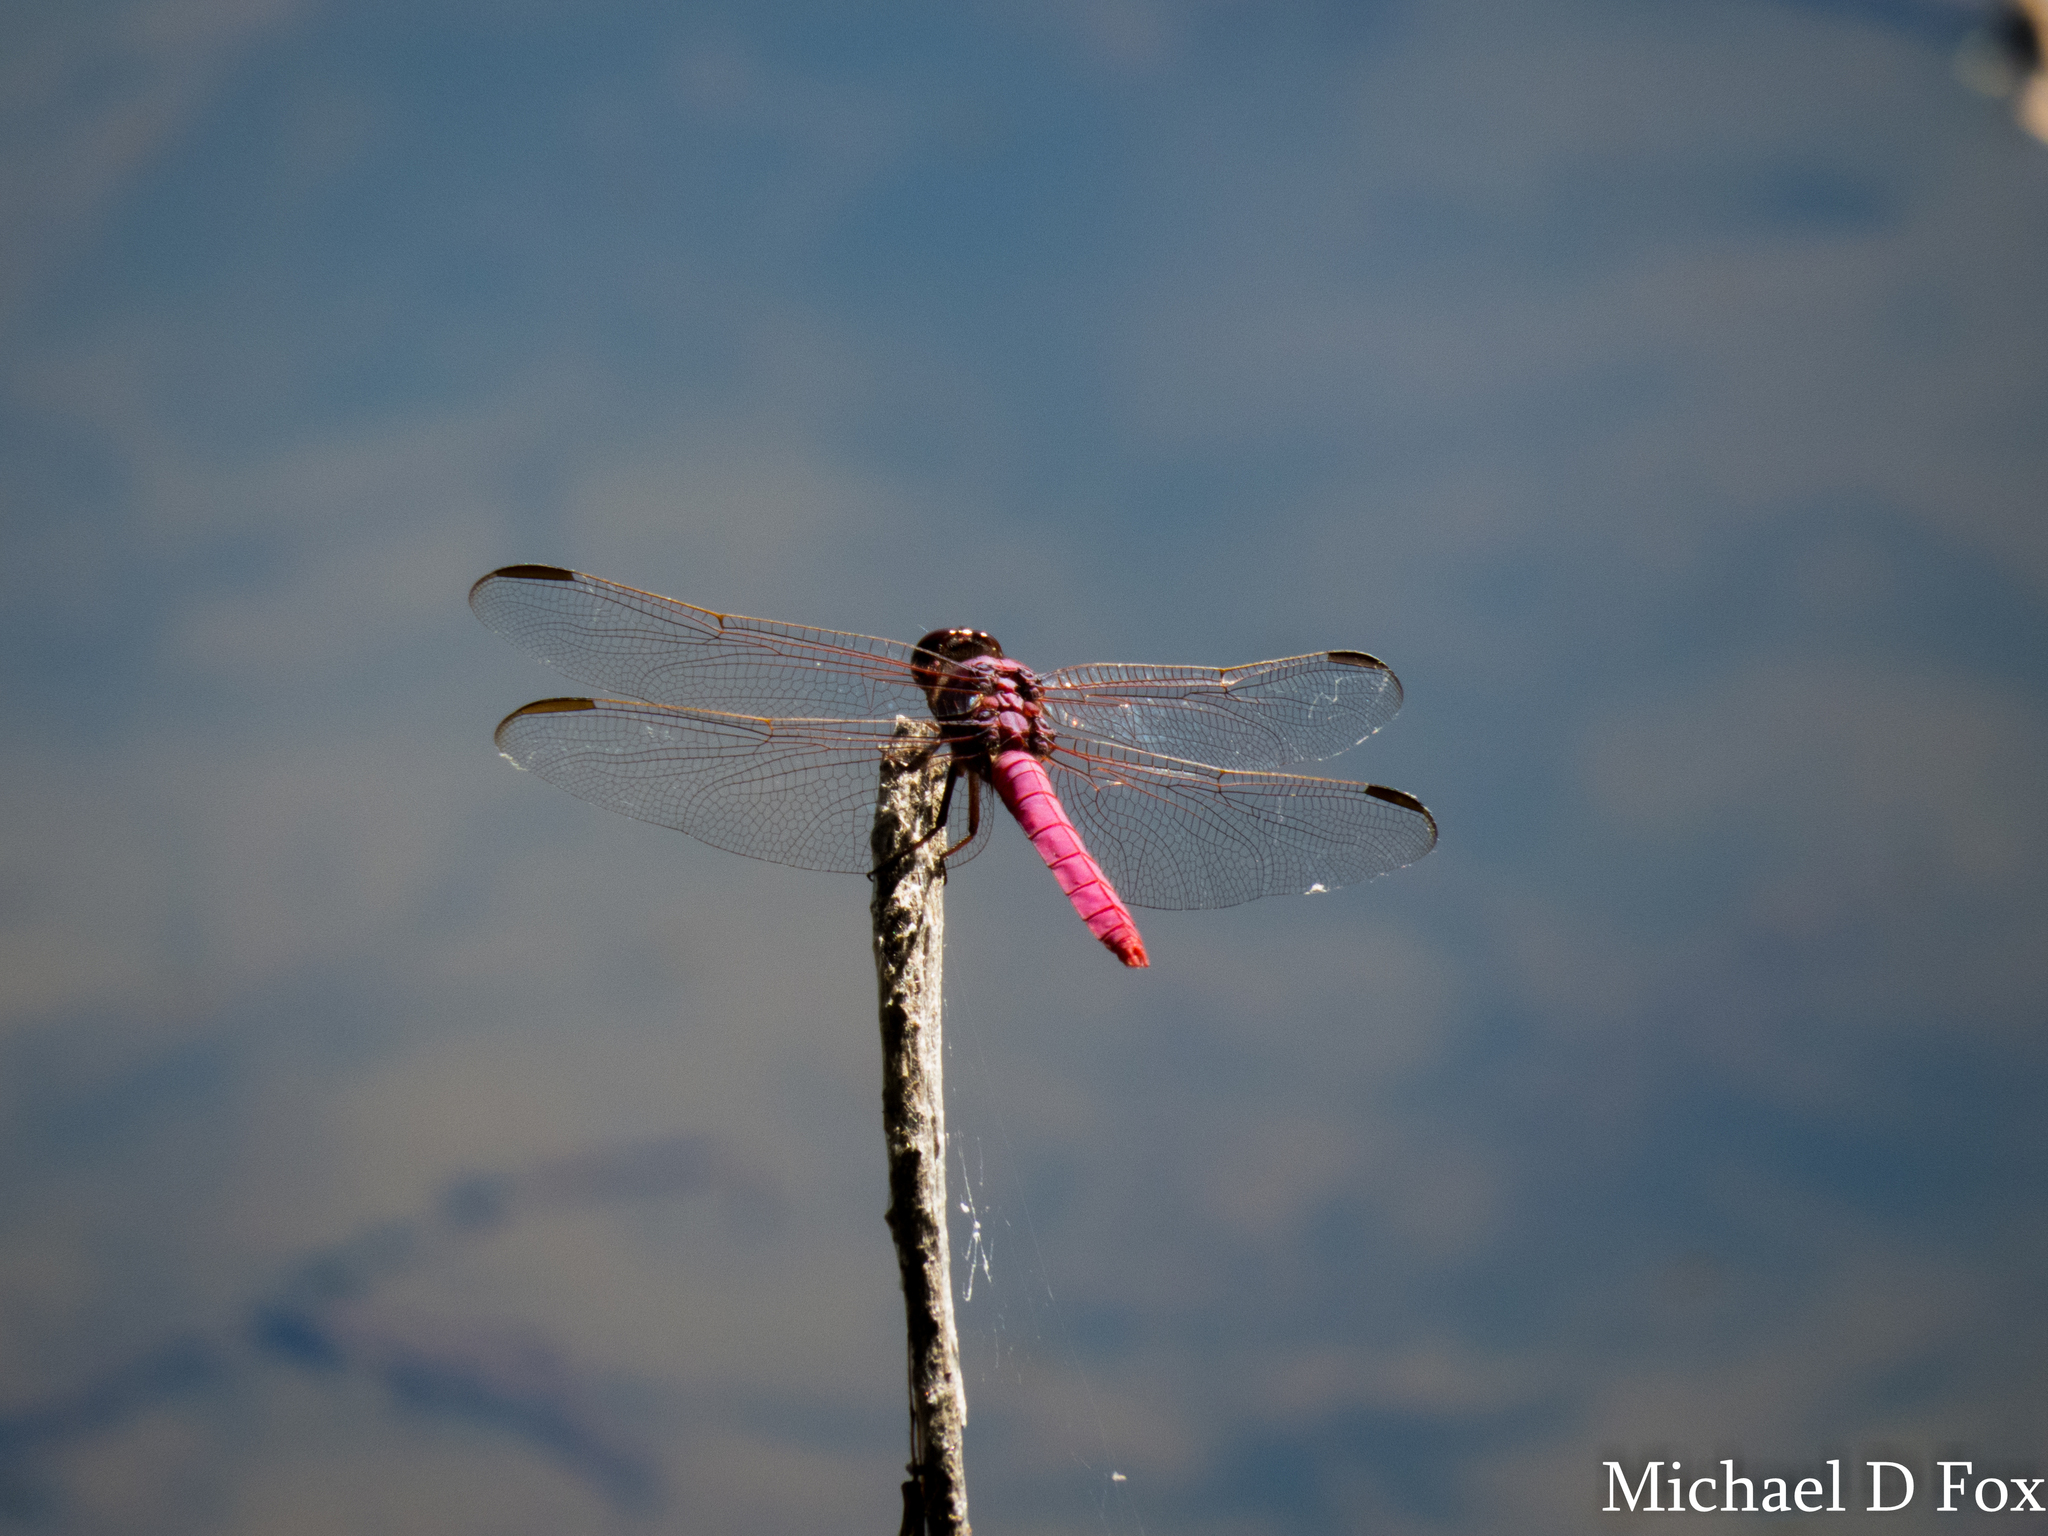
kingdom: Animalia
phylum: Arthropoda
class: Insecta
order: Odonata
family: Libellulidae
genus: Orthemis
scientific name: Orthemis ferruginea
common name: Roseate skimmer
